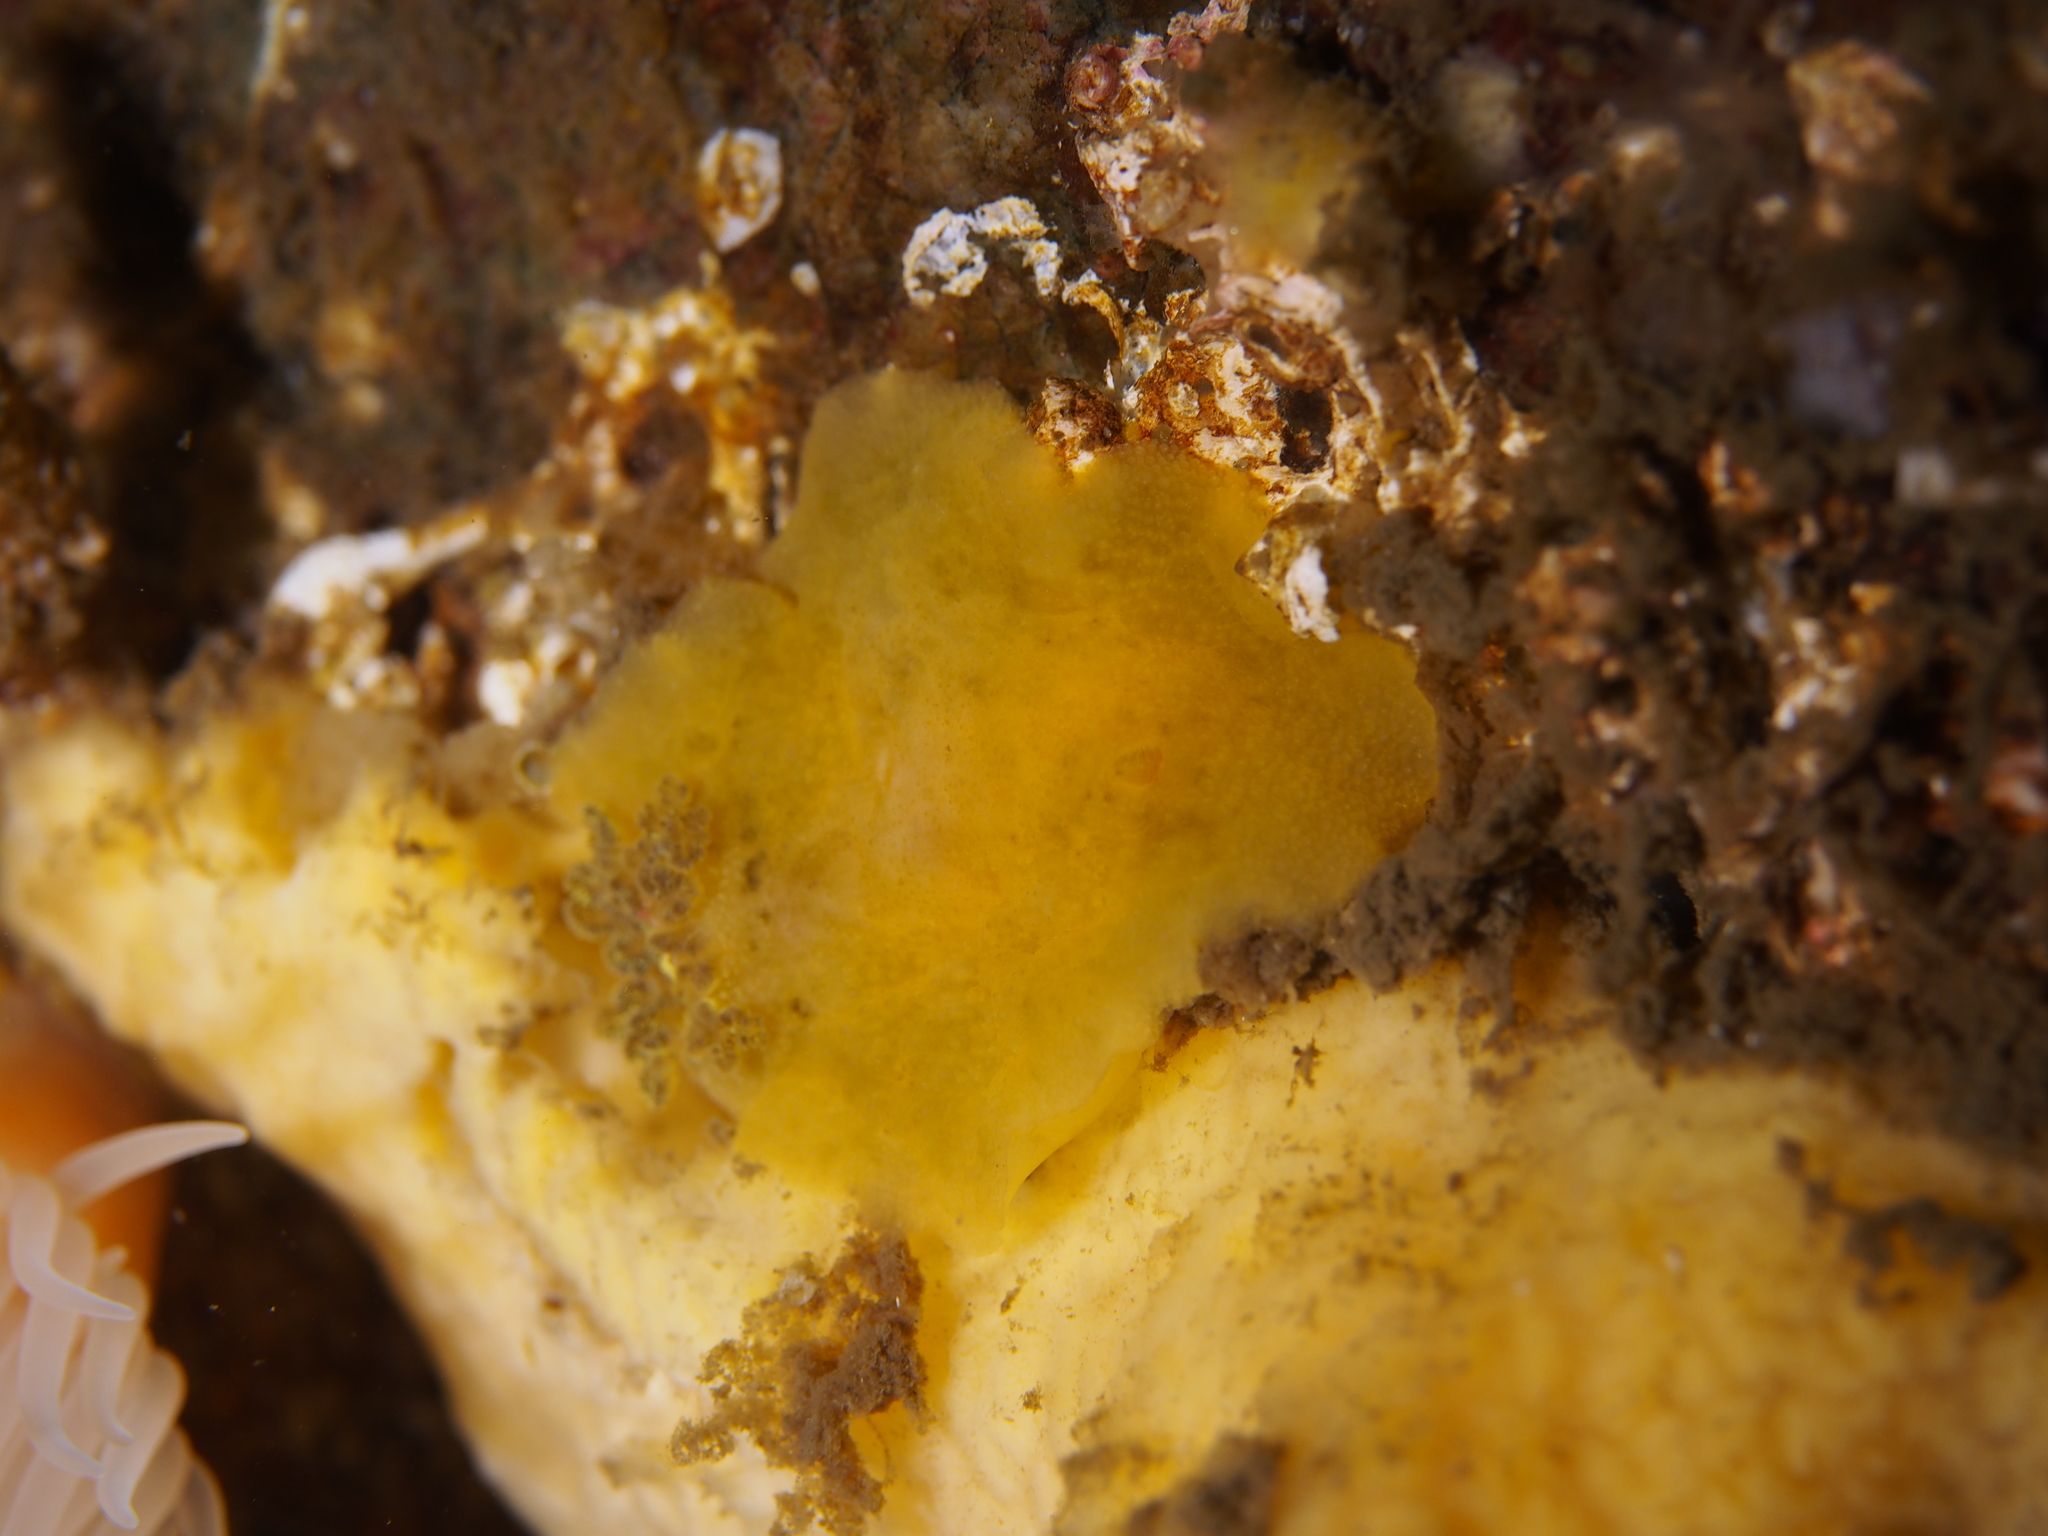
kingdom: Animalia
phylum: Mollusca
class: Gastropoda
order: Nudibranchia
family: Dorididae
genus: Doris
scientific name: Doris pseudoargus
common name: Sea lemon
